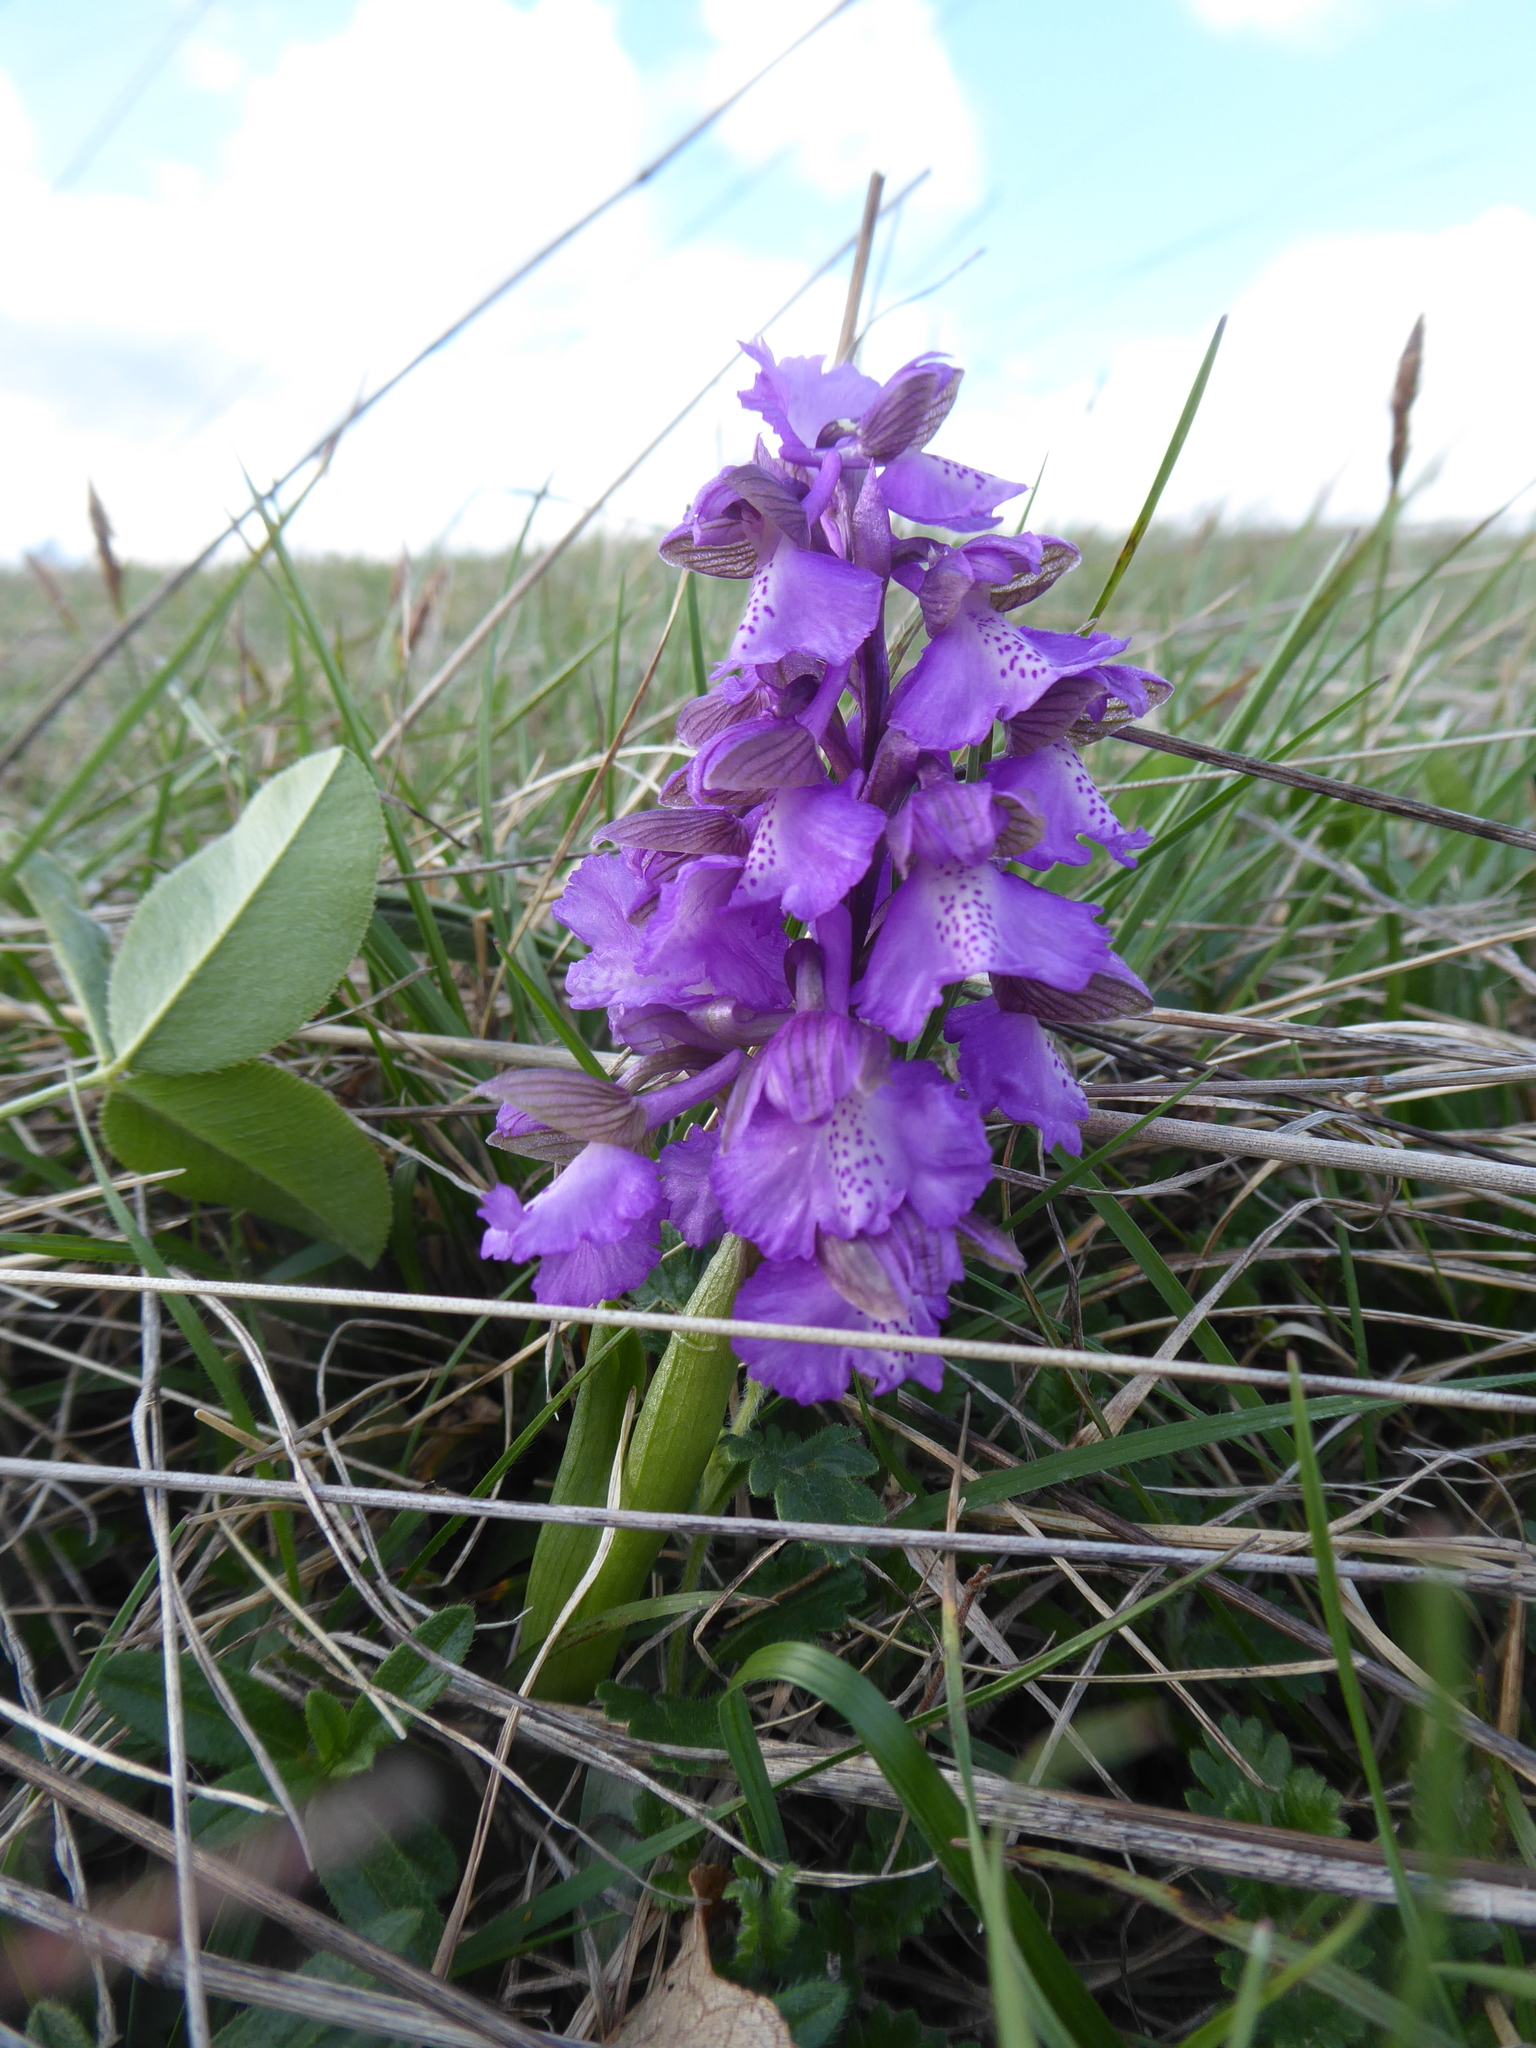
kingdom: Plantae
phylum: Tracheophyta
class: Liliopsida
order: Asparagales
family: Orchidaceae
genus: Anacamptis
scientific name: Anacamptis morio
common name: Green-winged orchid
